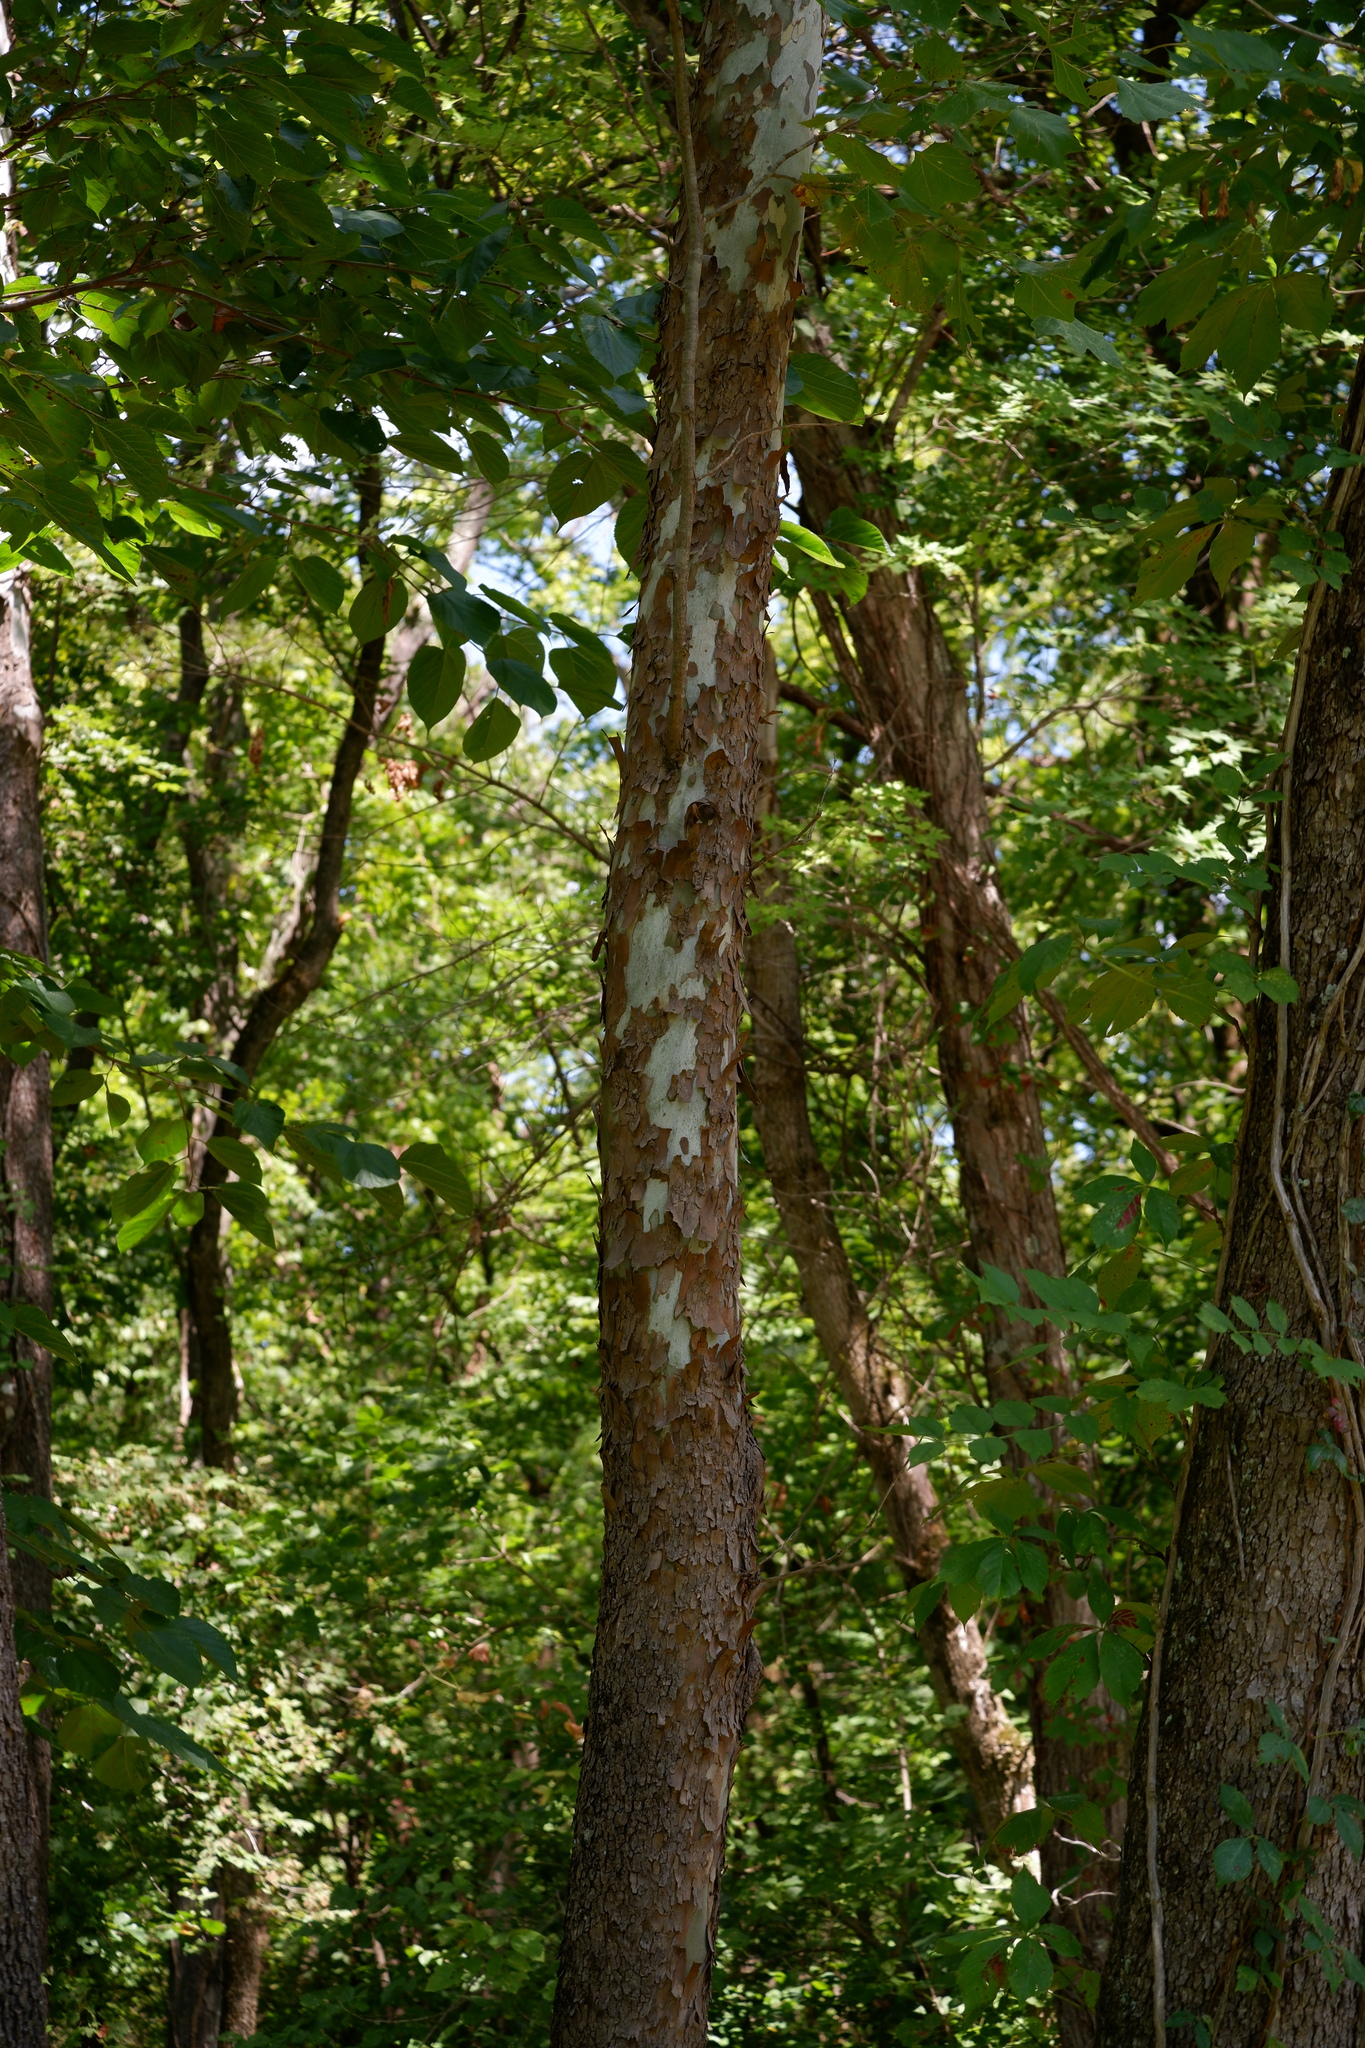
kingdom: Plantae
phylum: Tracheophyta
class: Magnoliopsida
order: Proteales
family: Platanaceae
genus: Platanus
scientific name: Platanus occidentalis
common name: American sycamore
